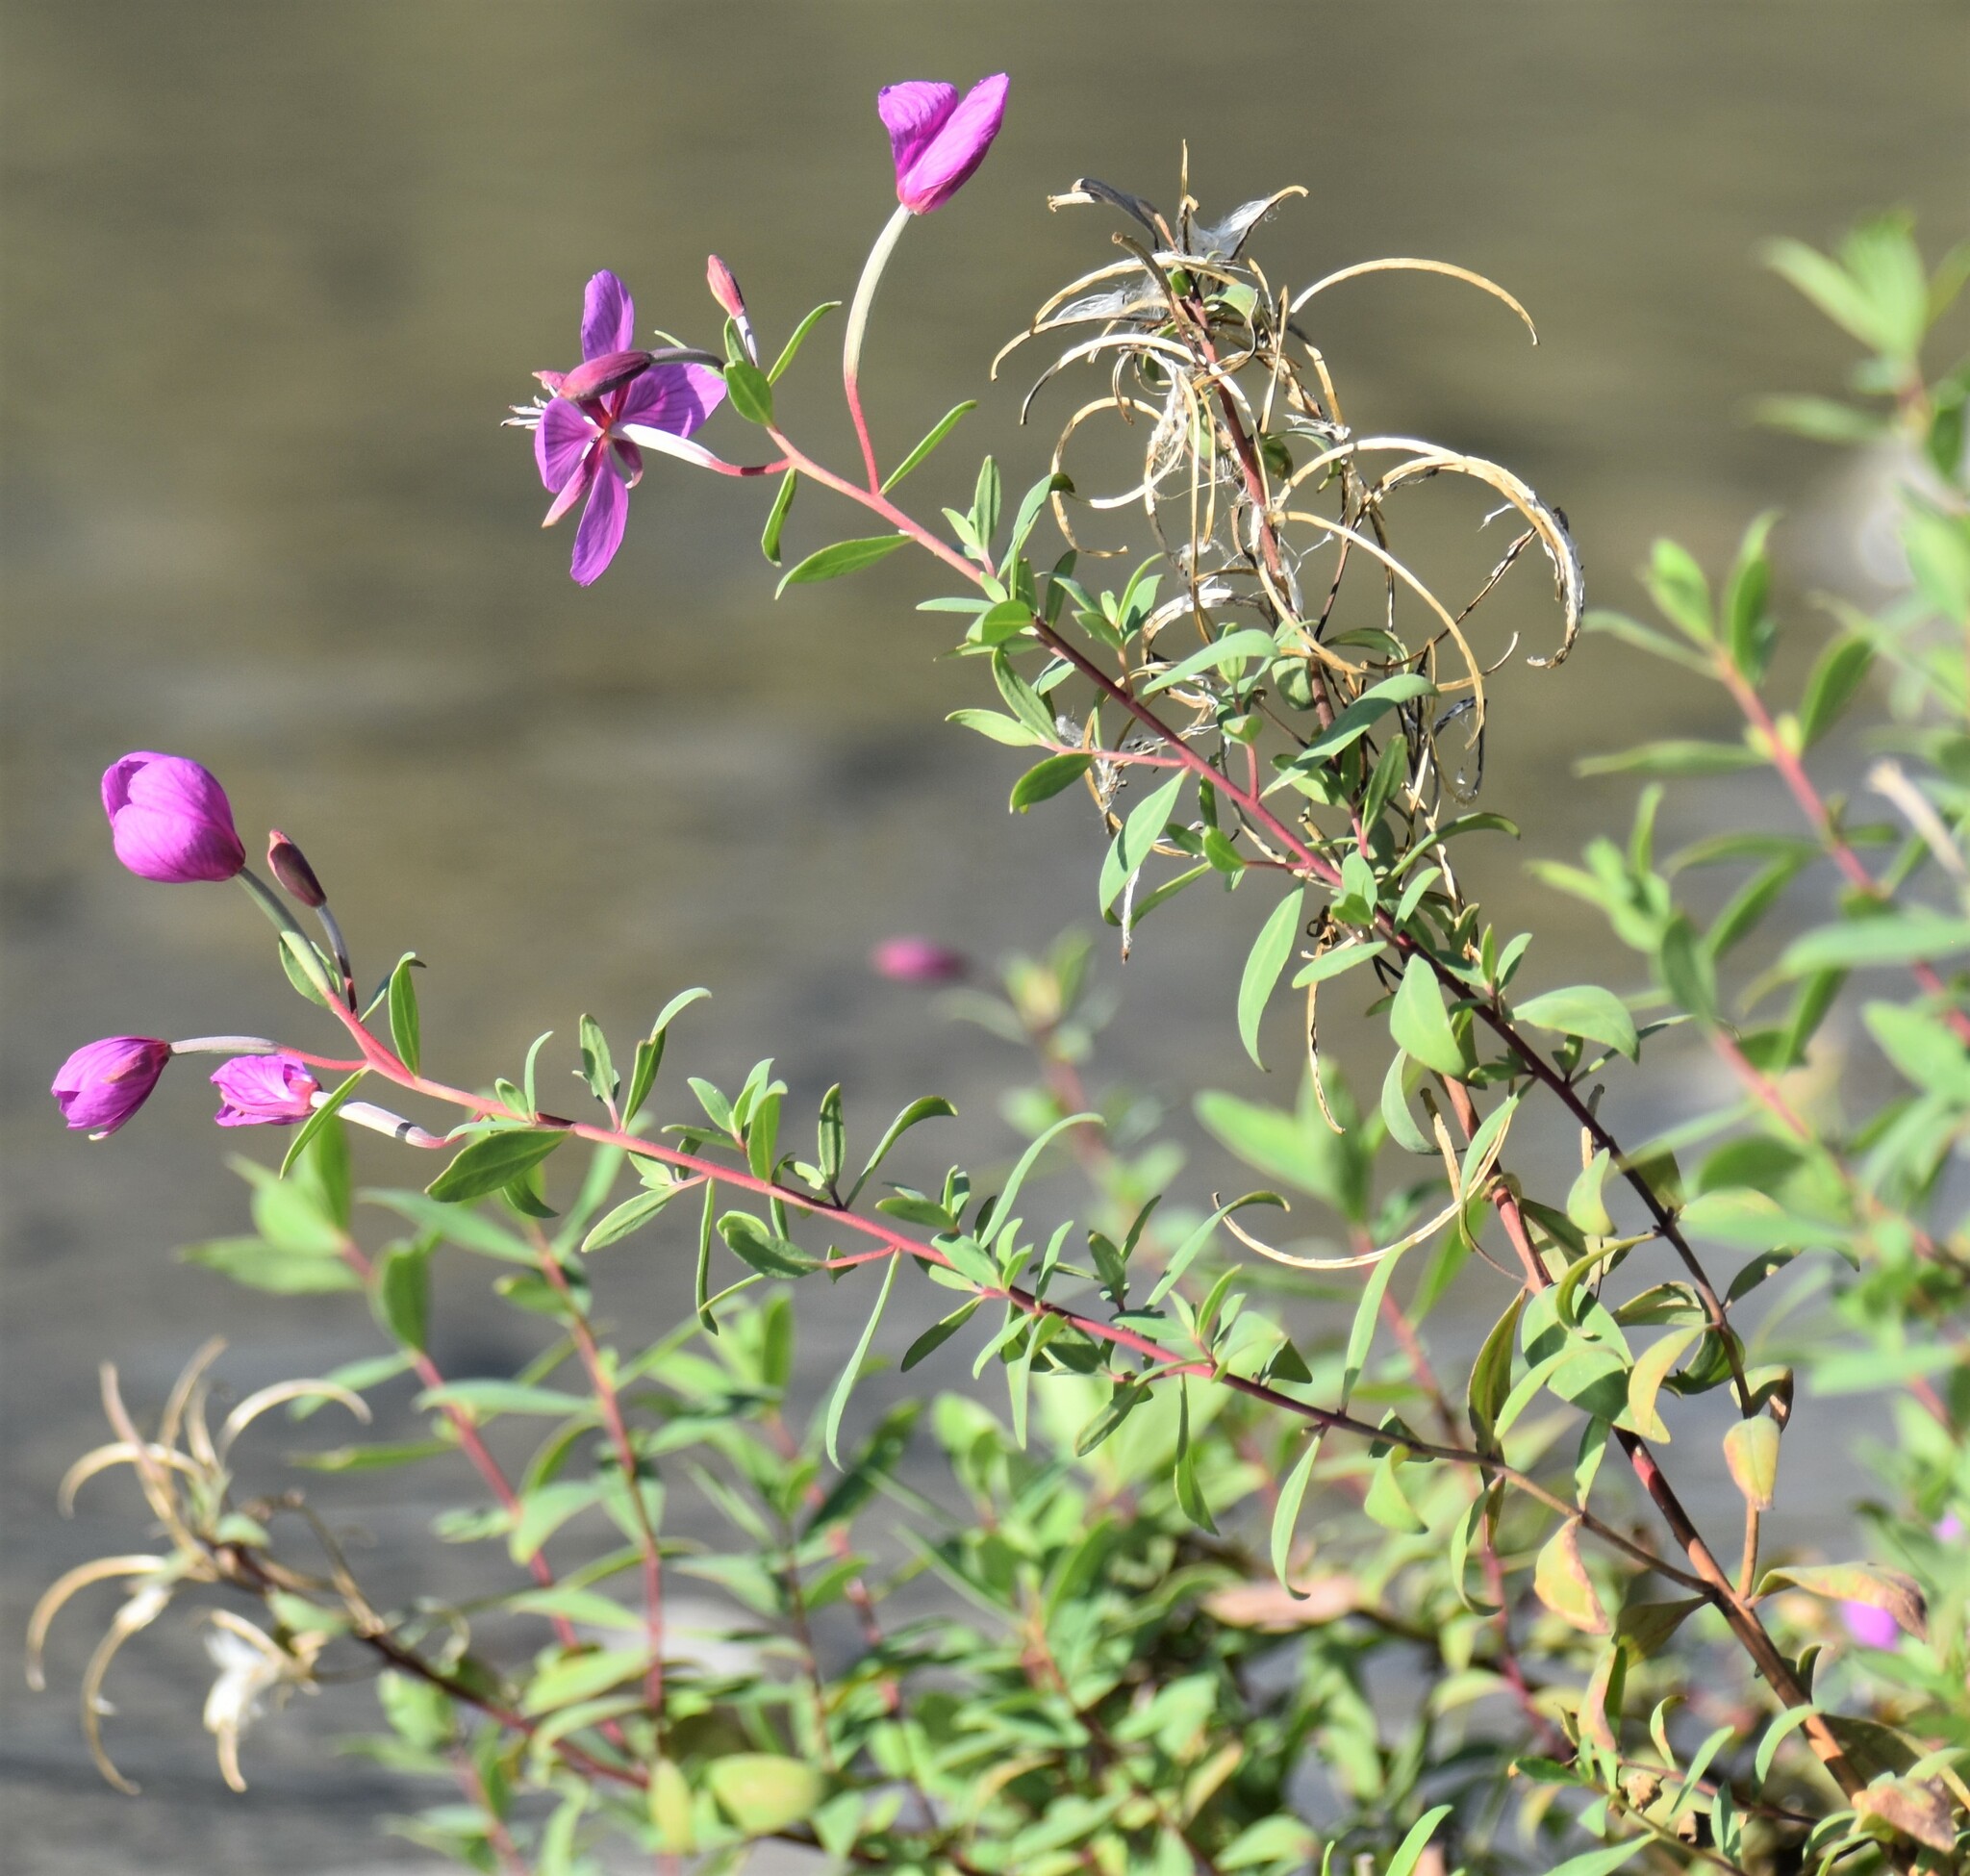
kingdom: Plantae
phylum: Tracheophyta
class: Magnoliopsida
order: Myrtales
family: Onagraceae
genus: Chamaenerion
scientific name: Chamaenerion latifolium
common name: Dwarf fireweed
